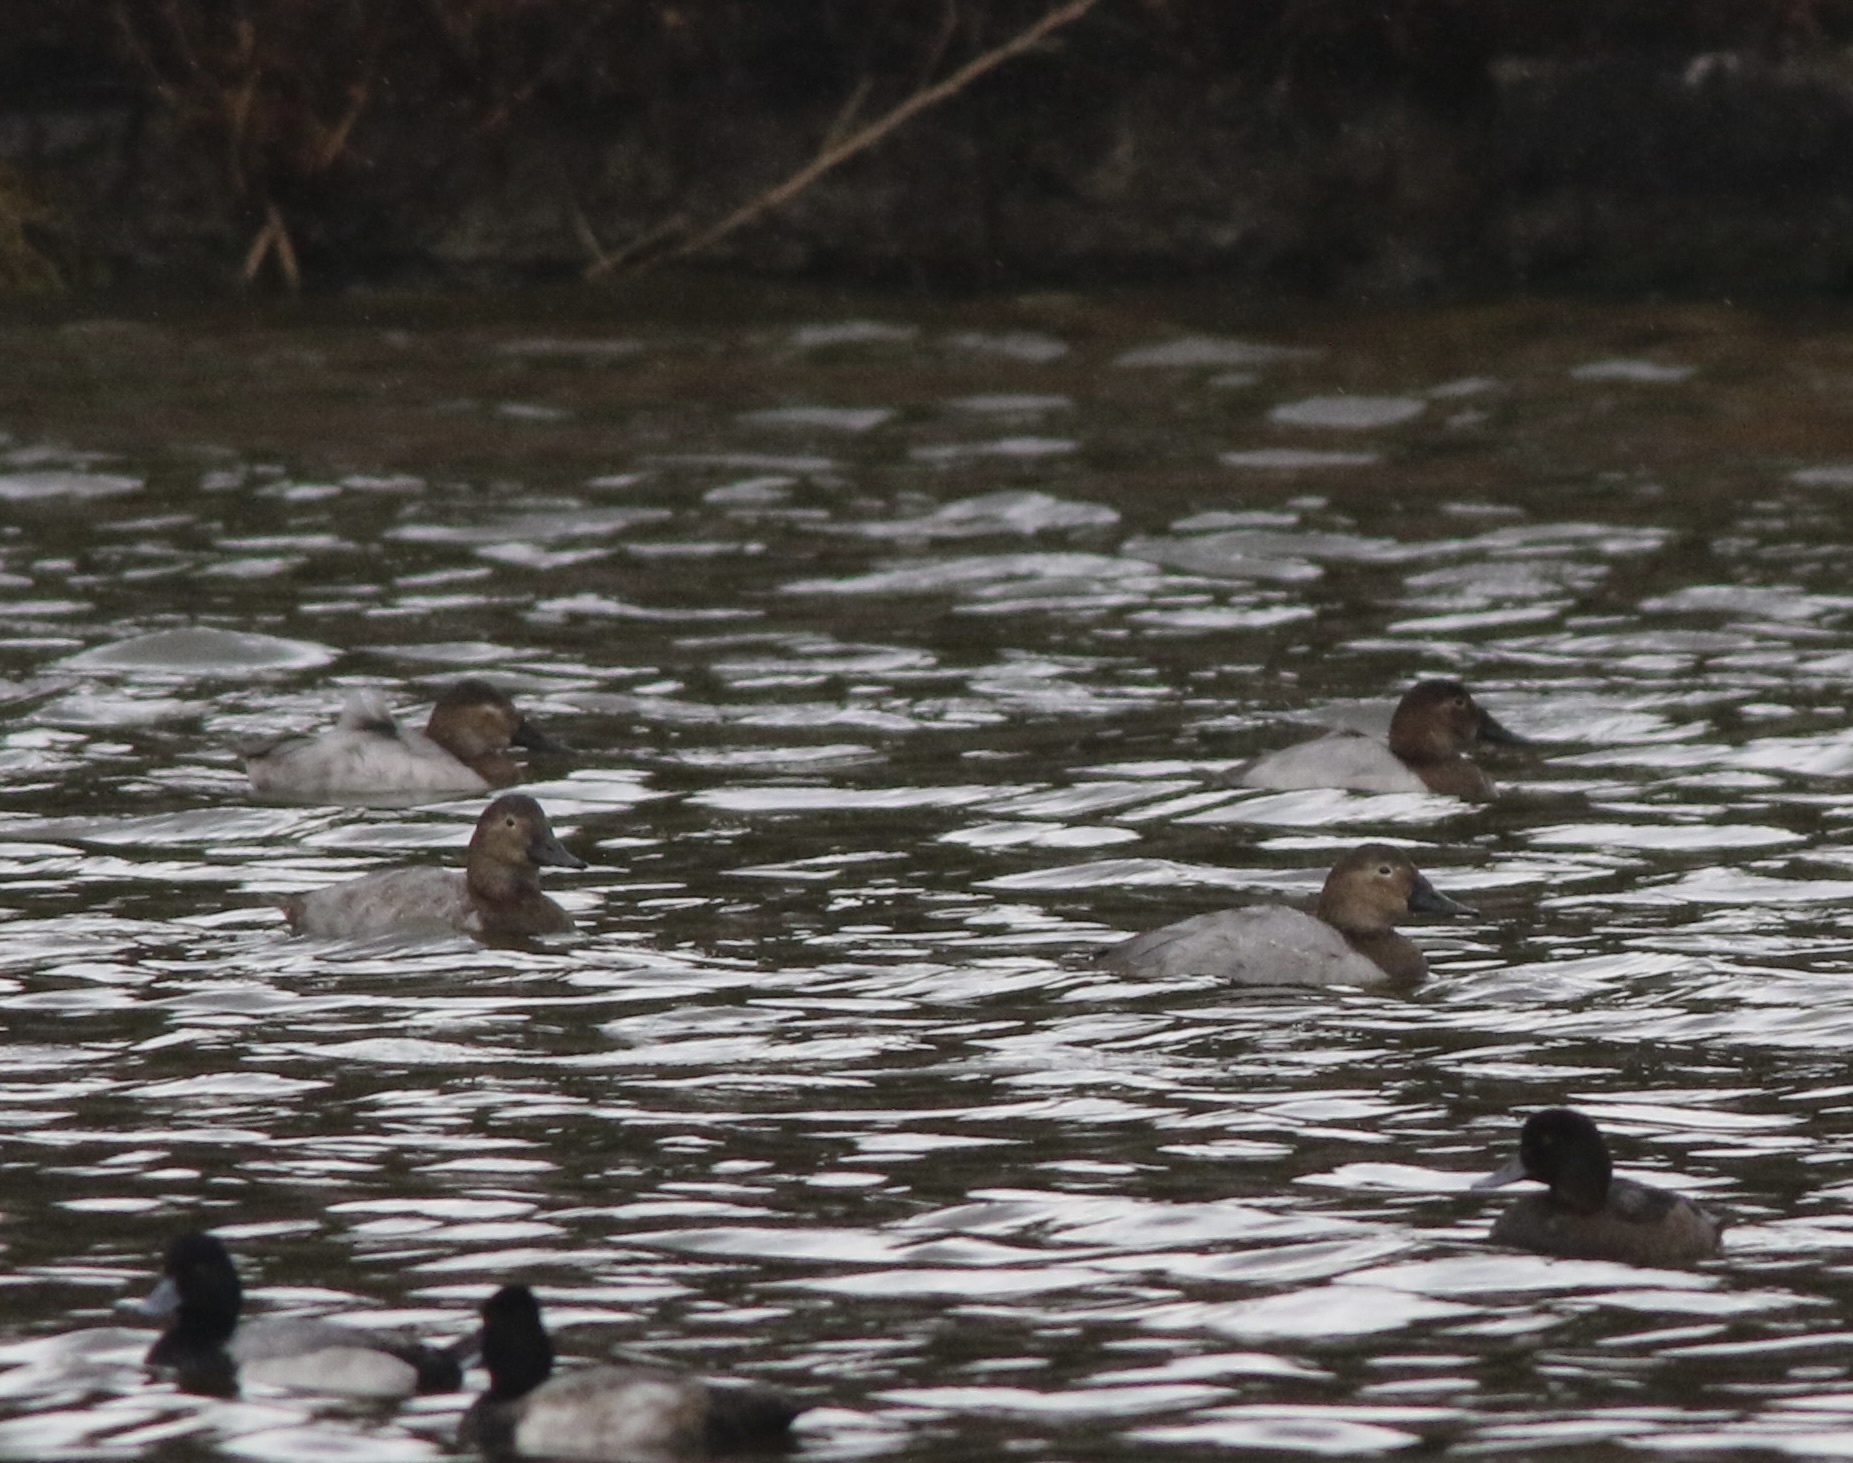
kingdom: Animalia
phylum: Chordata
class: Aves
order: Anseriformes
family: Anatidae
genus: Aythya
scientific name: Aythya valisineria
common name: Canvasback
